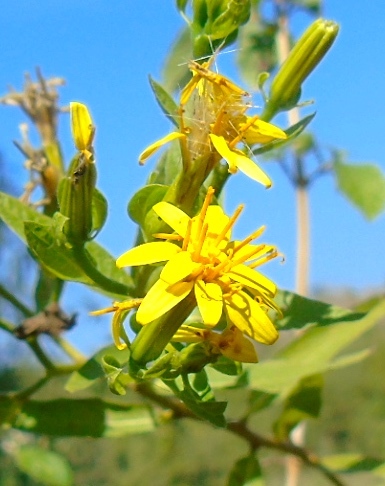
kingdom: Plantae
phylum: Tracheophyta
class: Magnoliopsida
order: Asterales
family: Asteraceae
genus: Trixis
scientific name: Trixis pterocaulis
